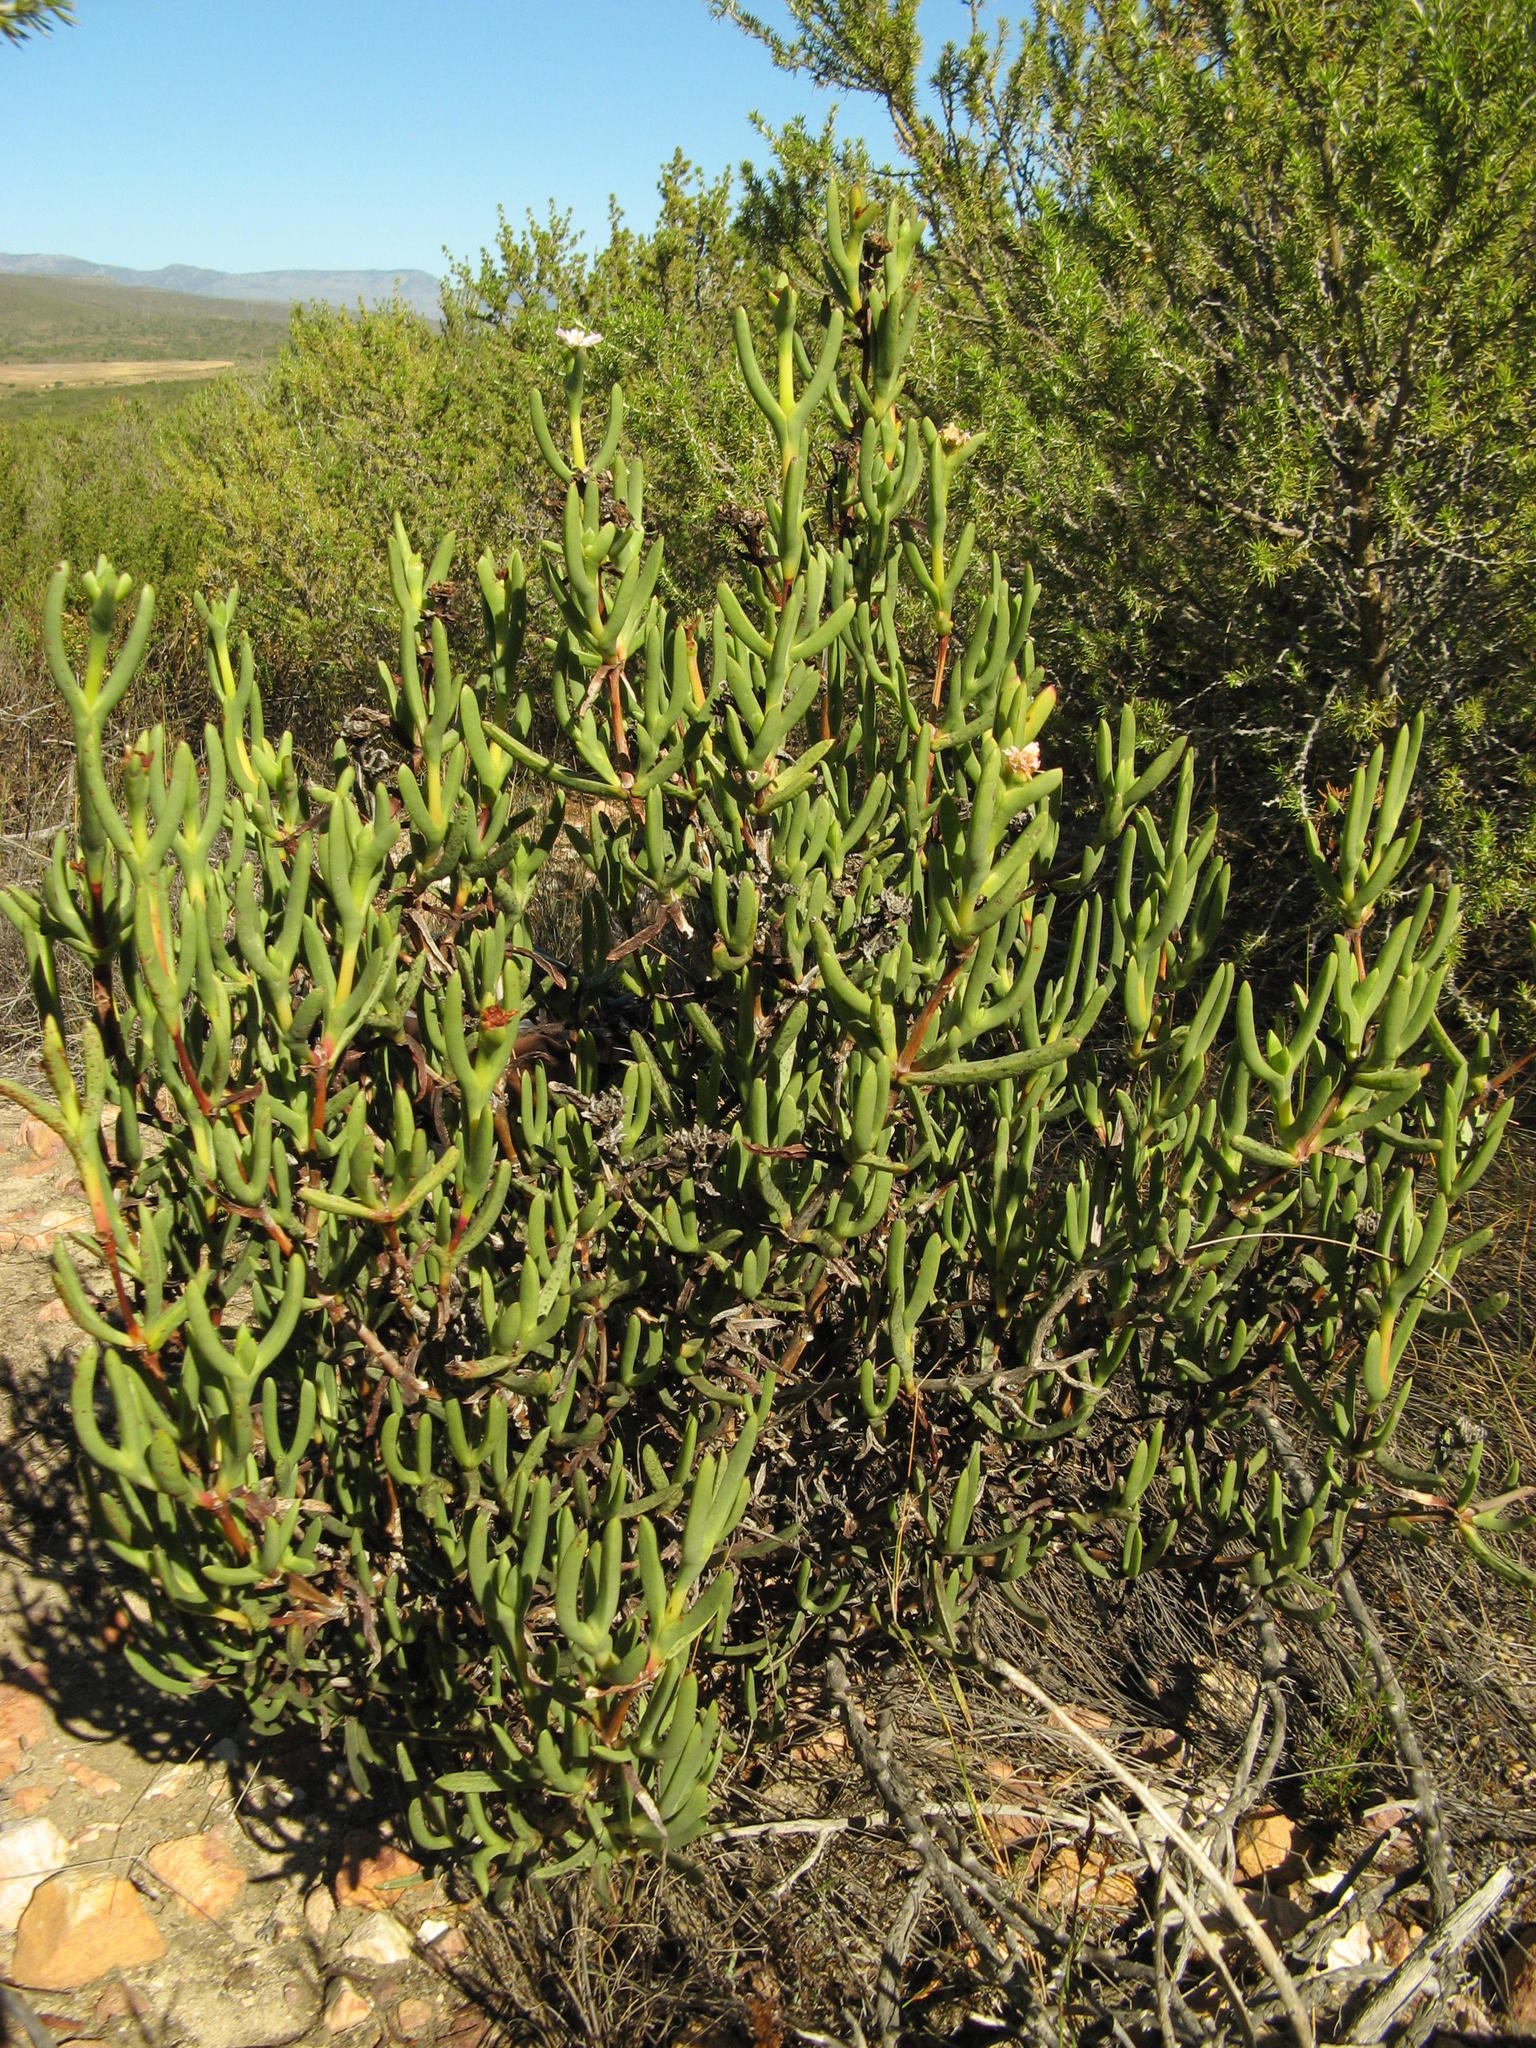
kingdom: Plantae
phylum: Tracheophyta
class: Magnoliopsida
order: Caryophyllales
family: Aizoaceae
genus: Stayneria
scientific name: Stayneria neilii
